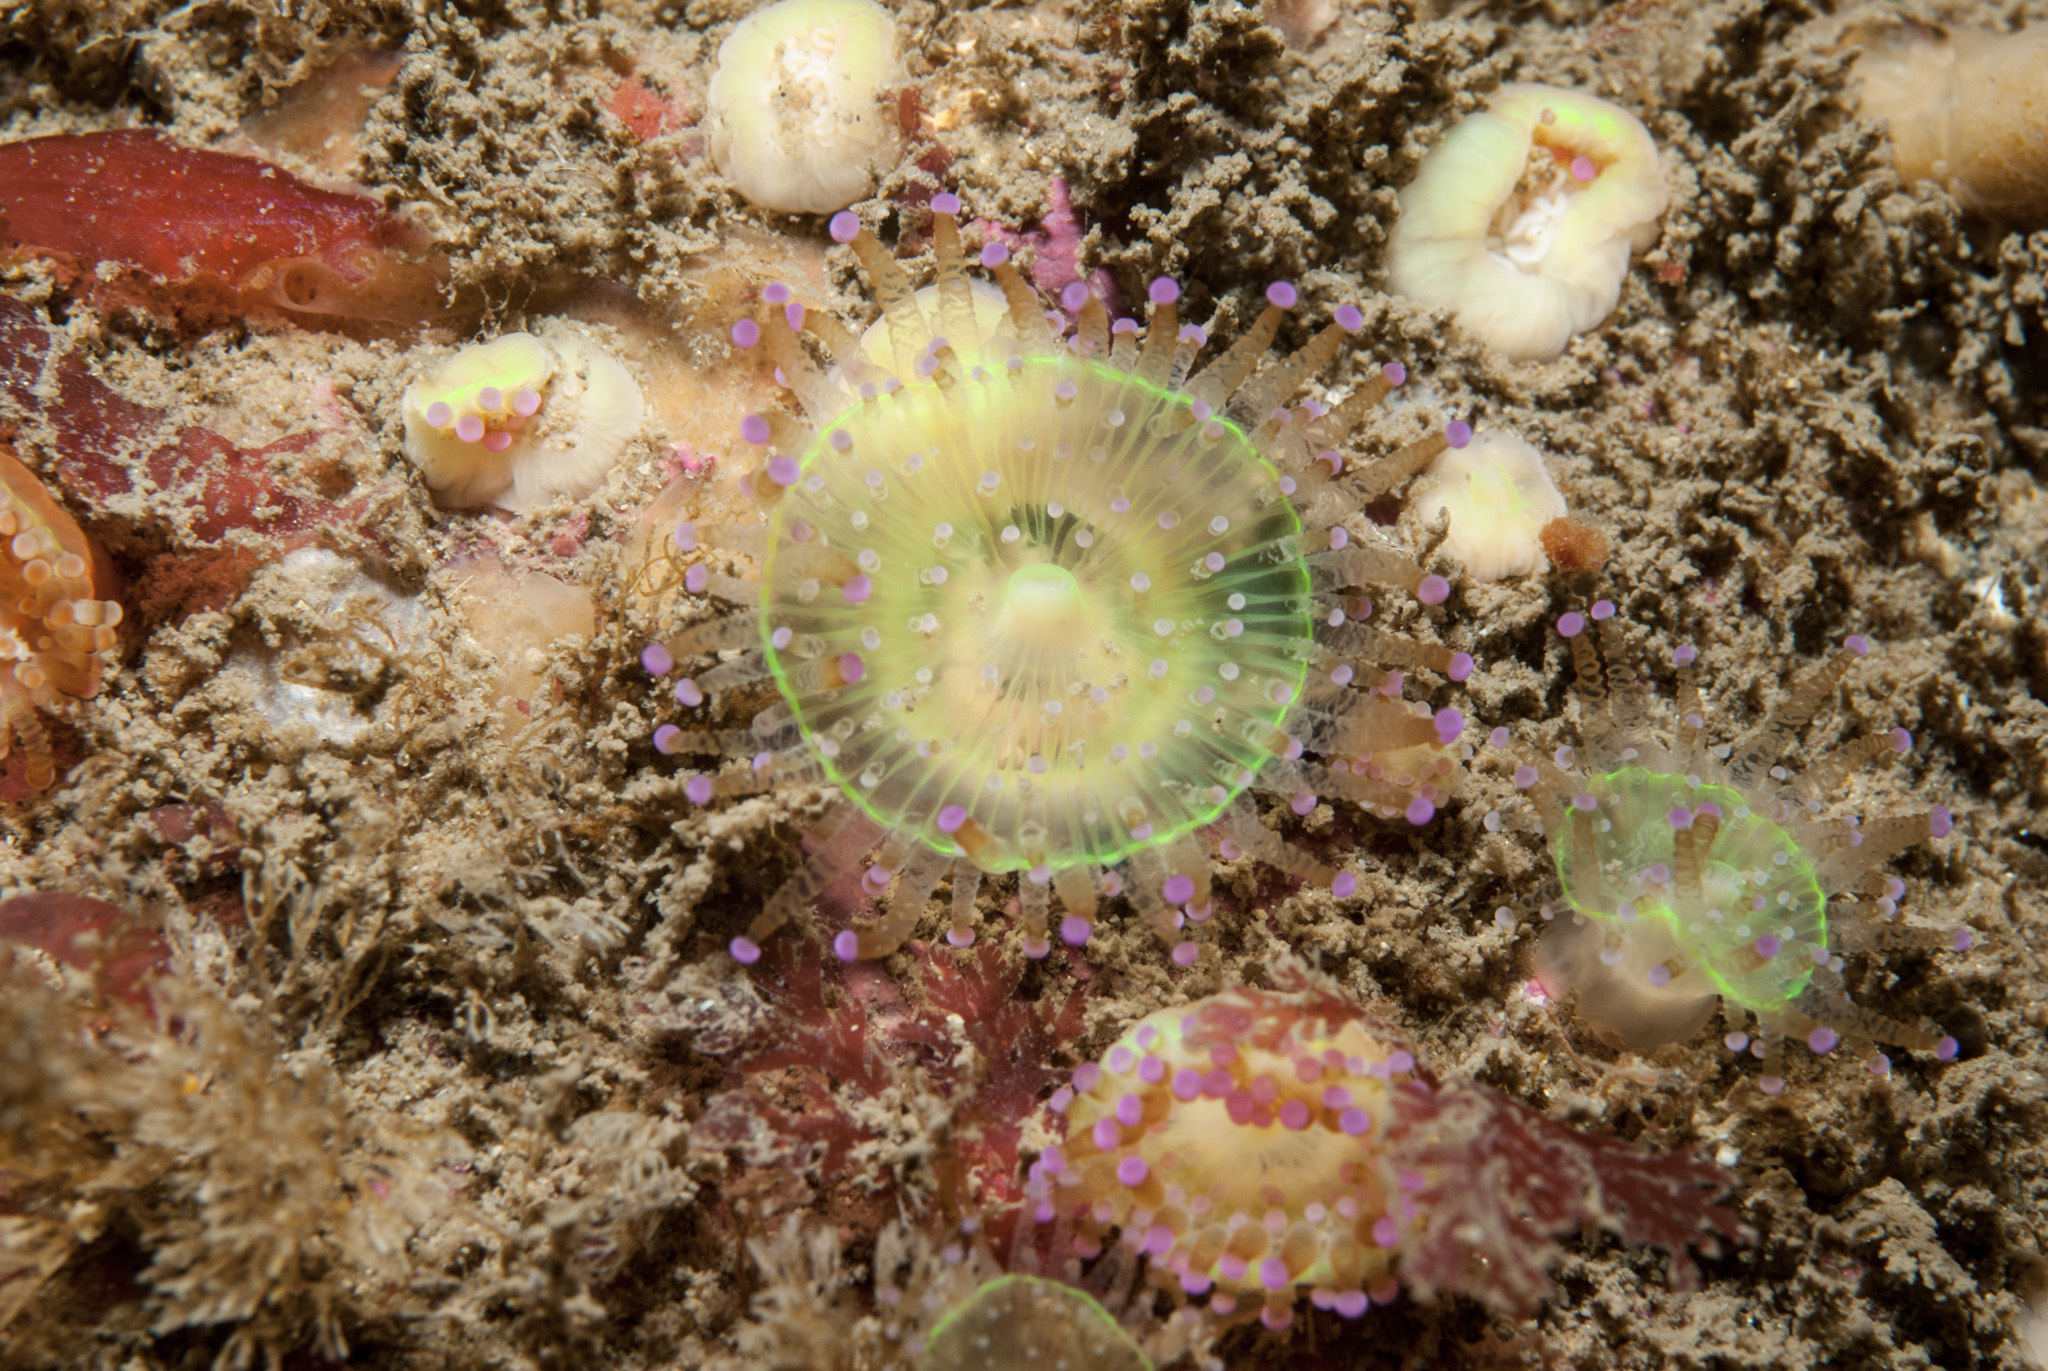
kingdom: Animalia
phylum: Cnidaria
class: Anthozoa
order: Corallimorpharia
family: Corallimorphidae
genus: Corynactis
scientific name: Corynactis viridis
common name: Jewel anemone
